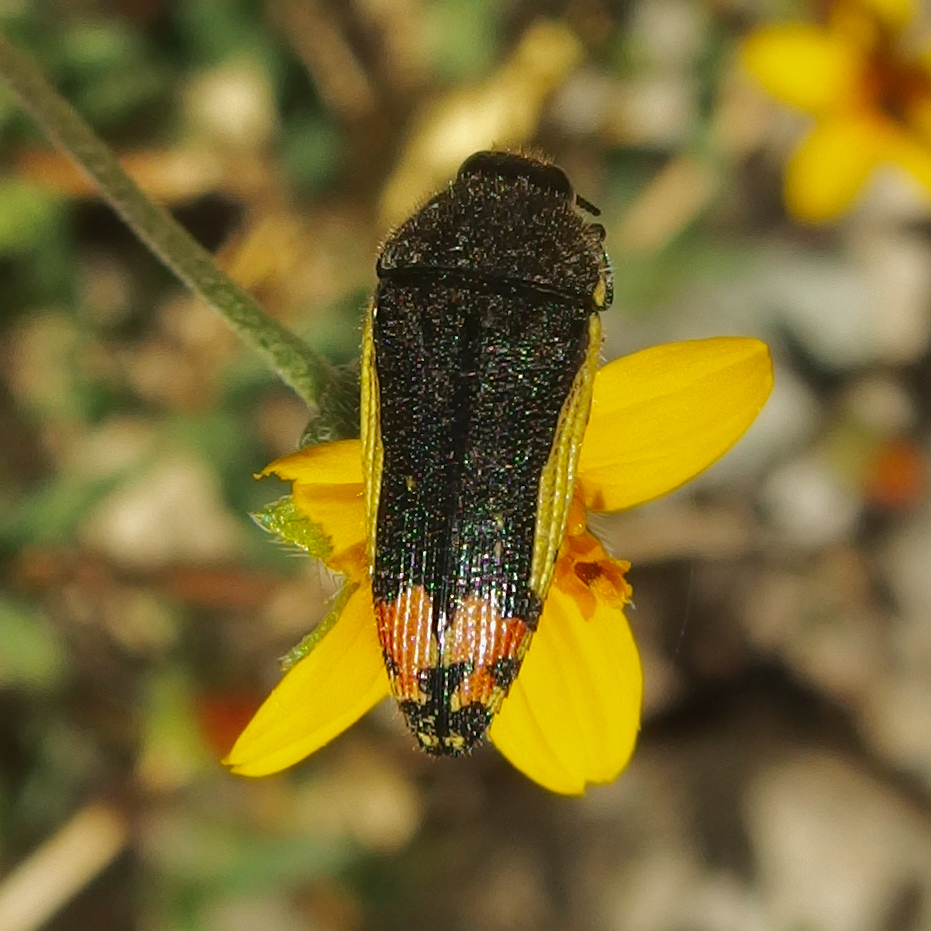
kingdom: Animalia
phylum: Arthropoda
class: Insecta
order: Coleoptera
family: Buprestidae
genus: Acmaeodera
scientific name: Acmaeodera flavomarginata
